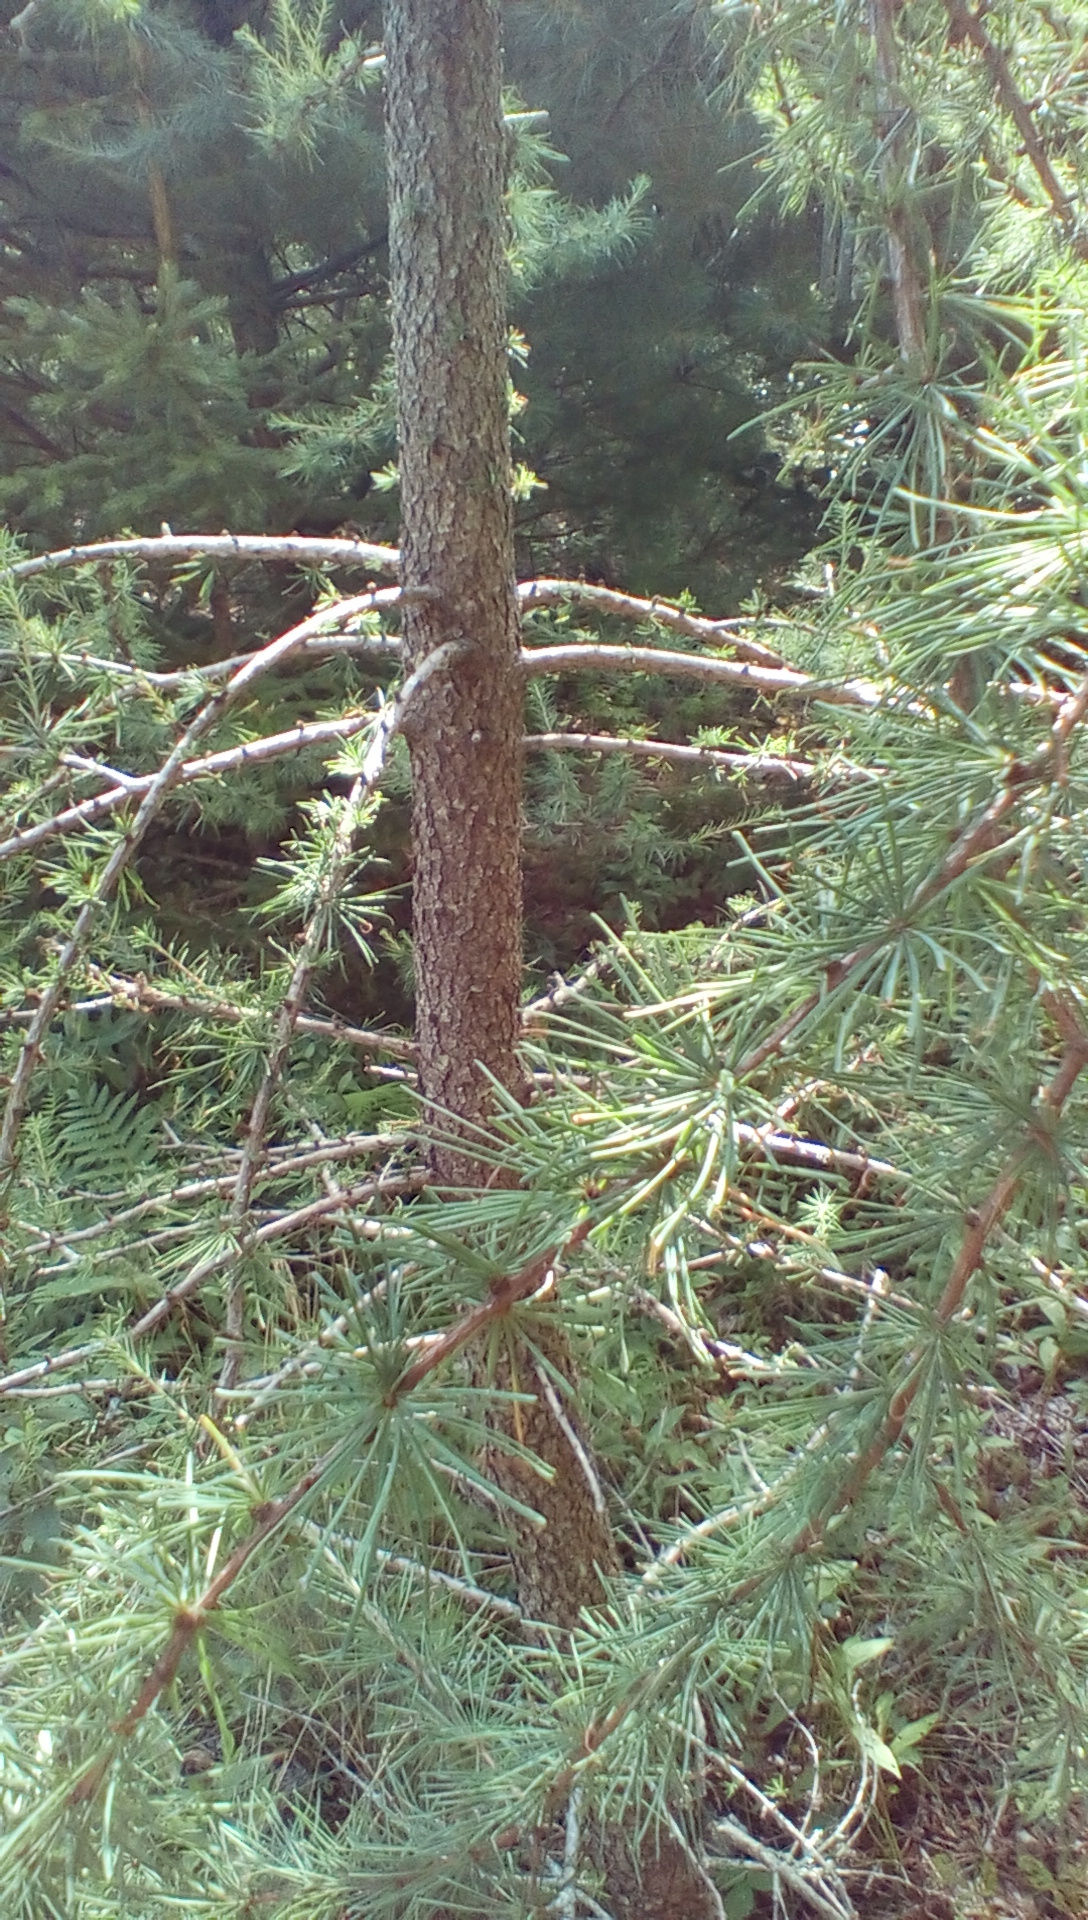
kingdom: Plantae
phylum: Tracheophyta
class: Pinopsida
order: Pinales
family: Pinaceae
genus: Larix
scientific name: Larix laricina
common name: American larch
